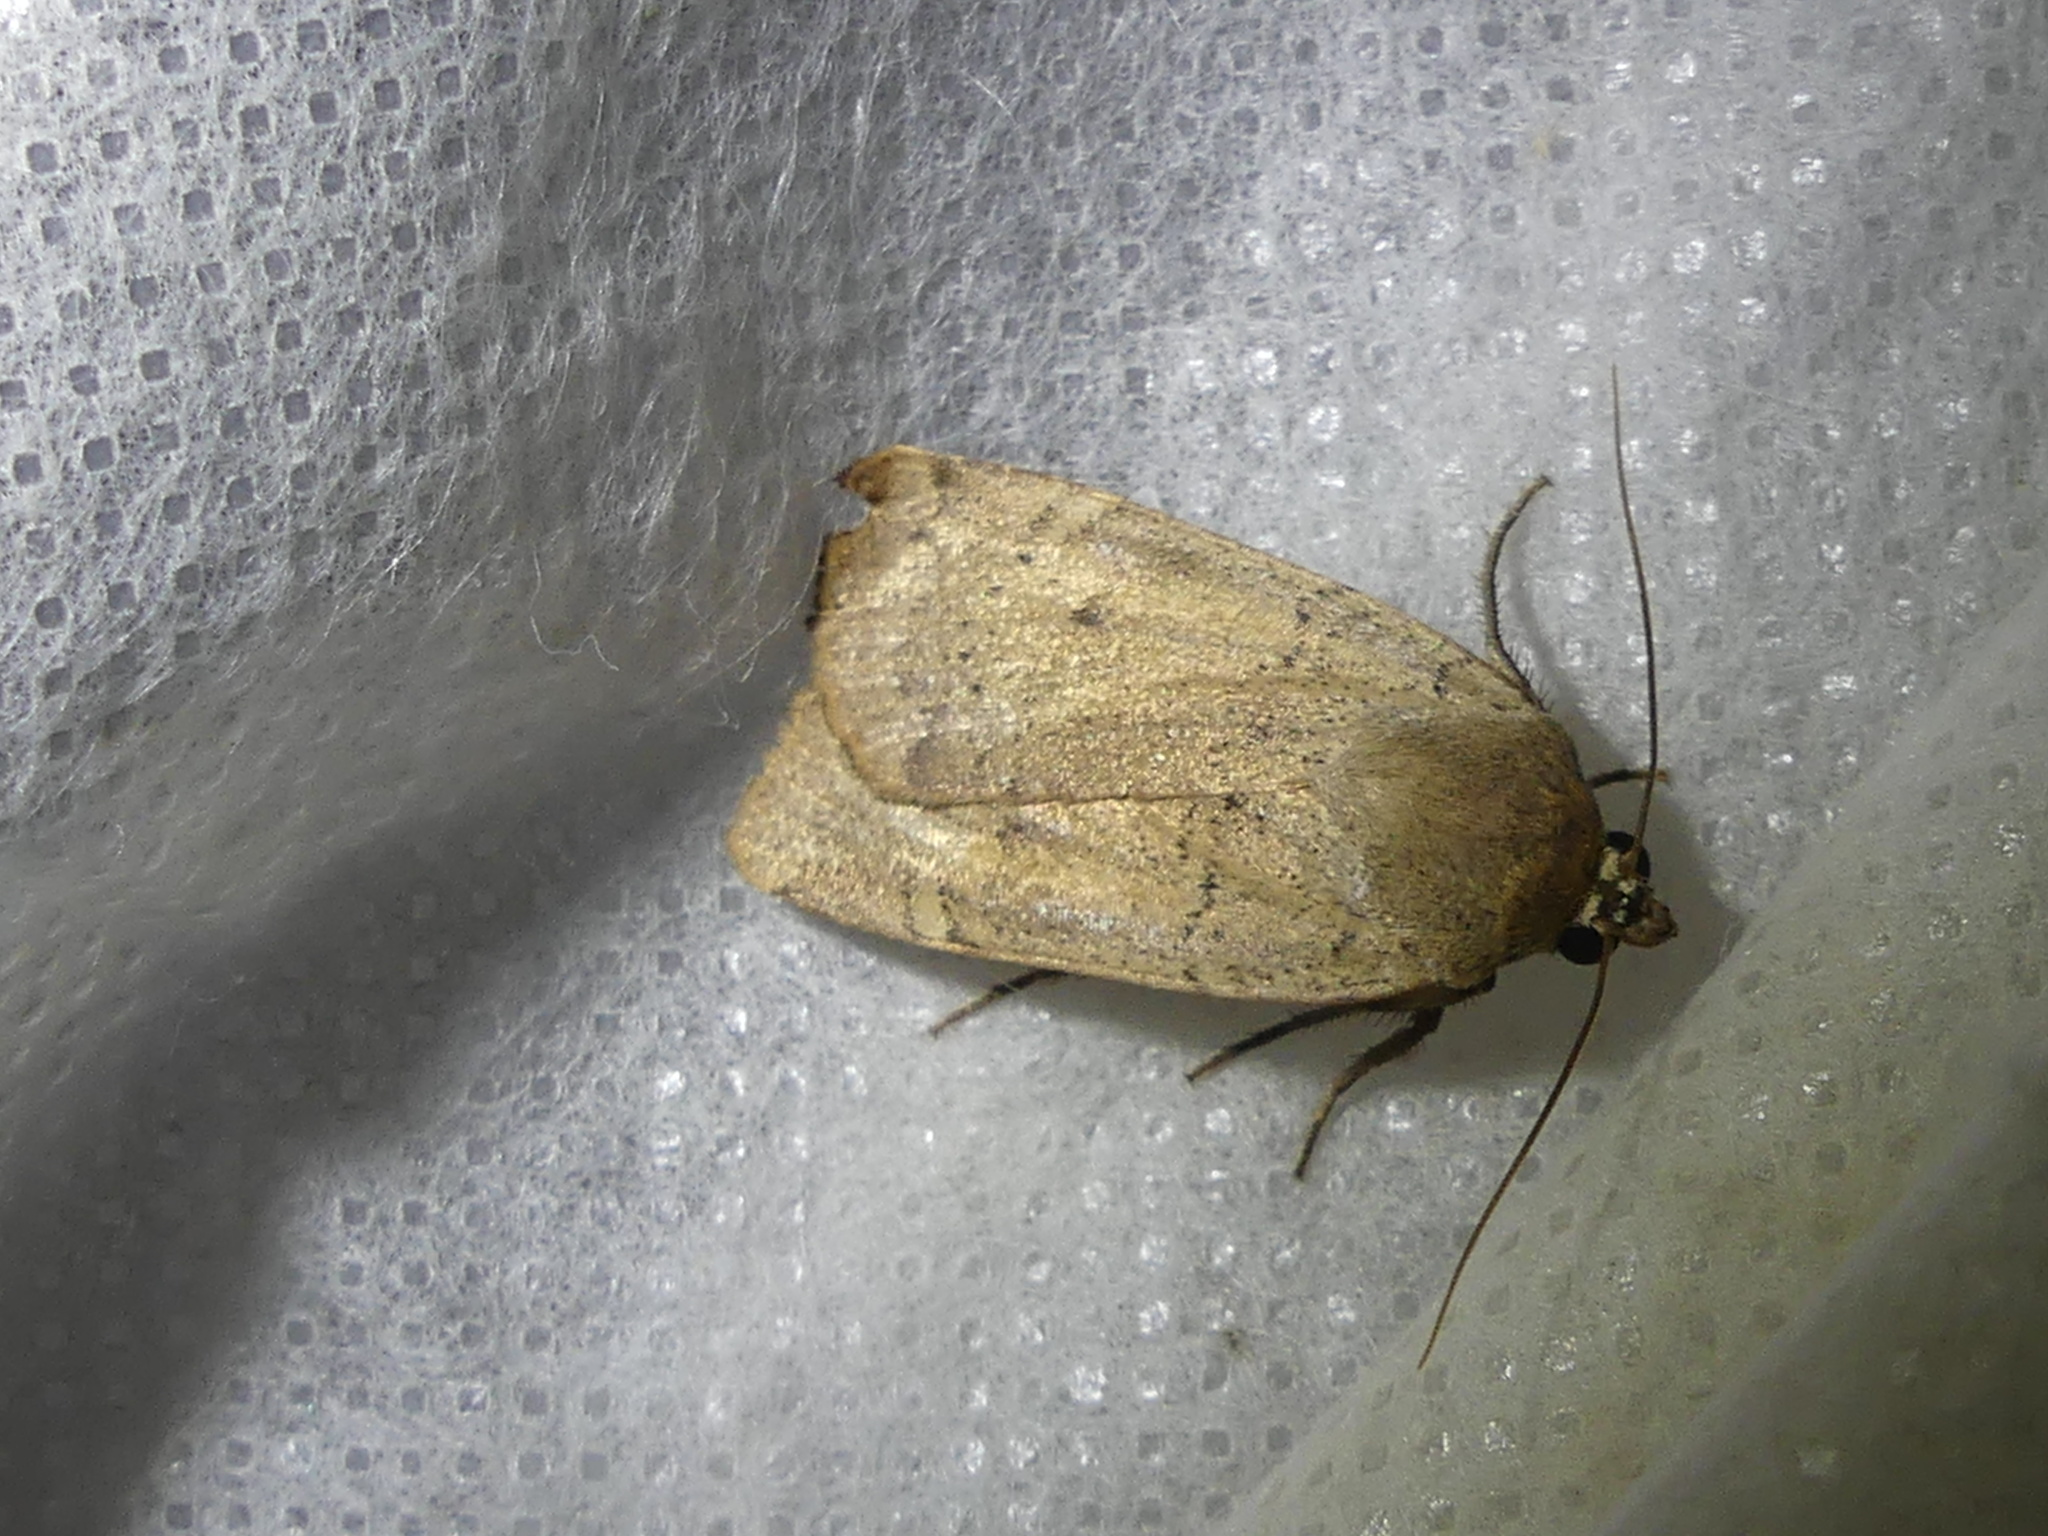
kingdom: Animalia
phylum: Arthropoda
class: Insecta
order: Lepidoptera
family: Noctuidae
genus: Noctua
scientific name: Noctua comes
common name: Lesser yellow underwing
